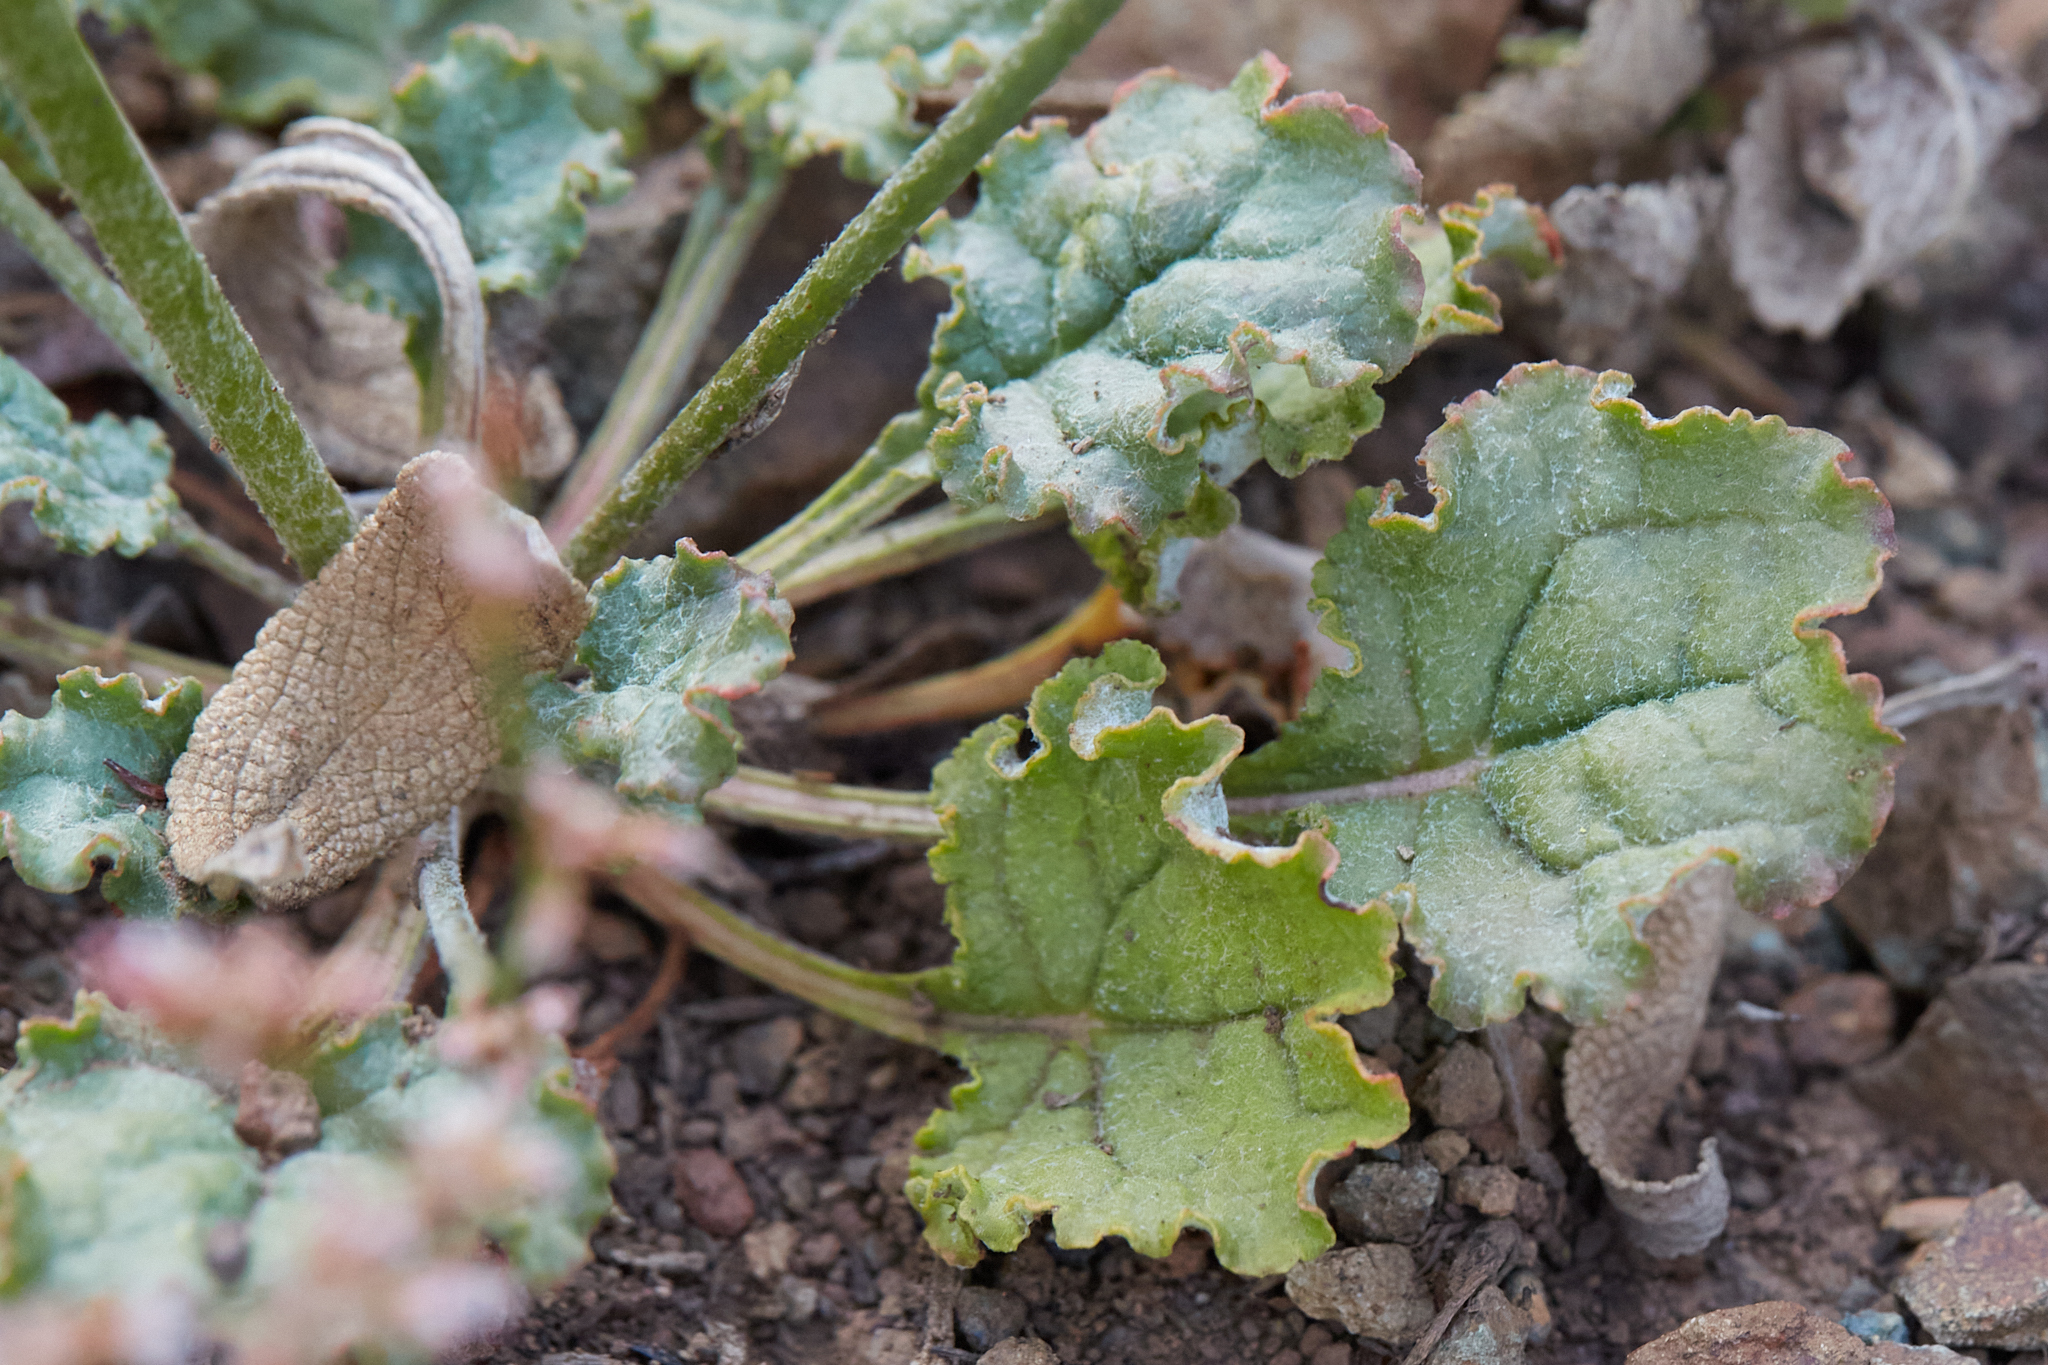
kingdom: Plantae
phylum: Tracheophyta
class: Magnoliopsida
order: Caryophyllales
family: Polygonaceae
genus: Eriogonum
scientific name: Eriogonum luteolum
